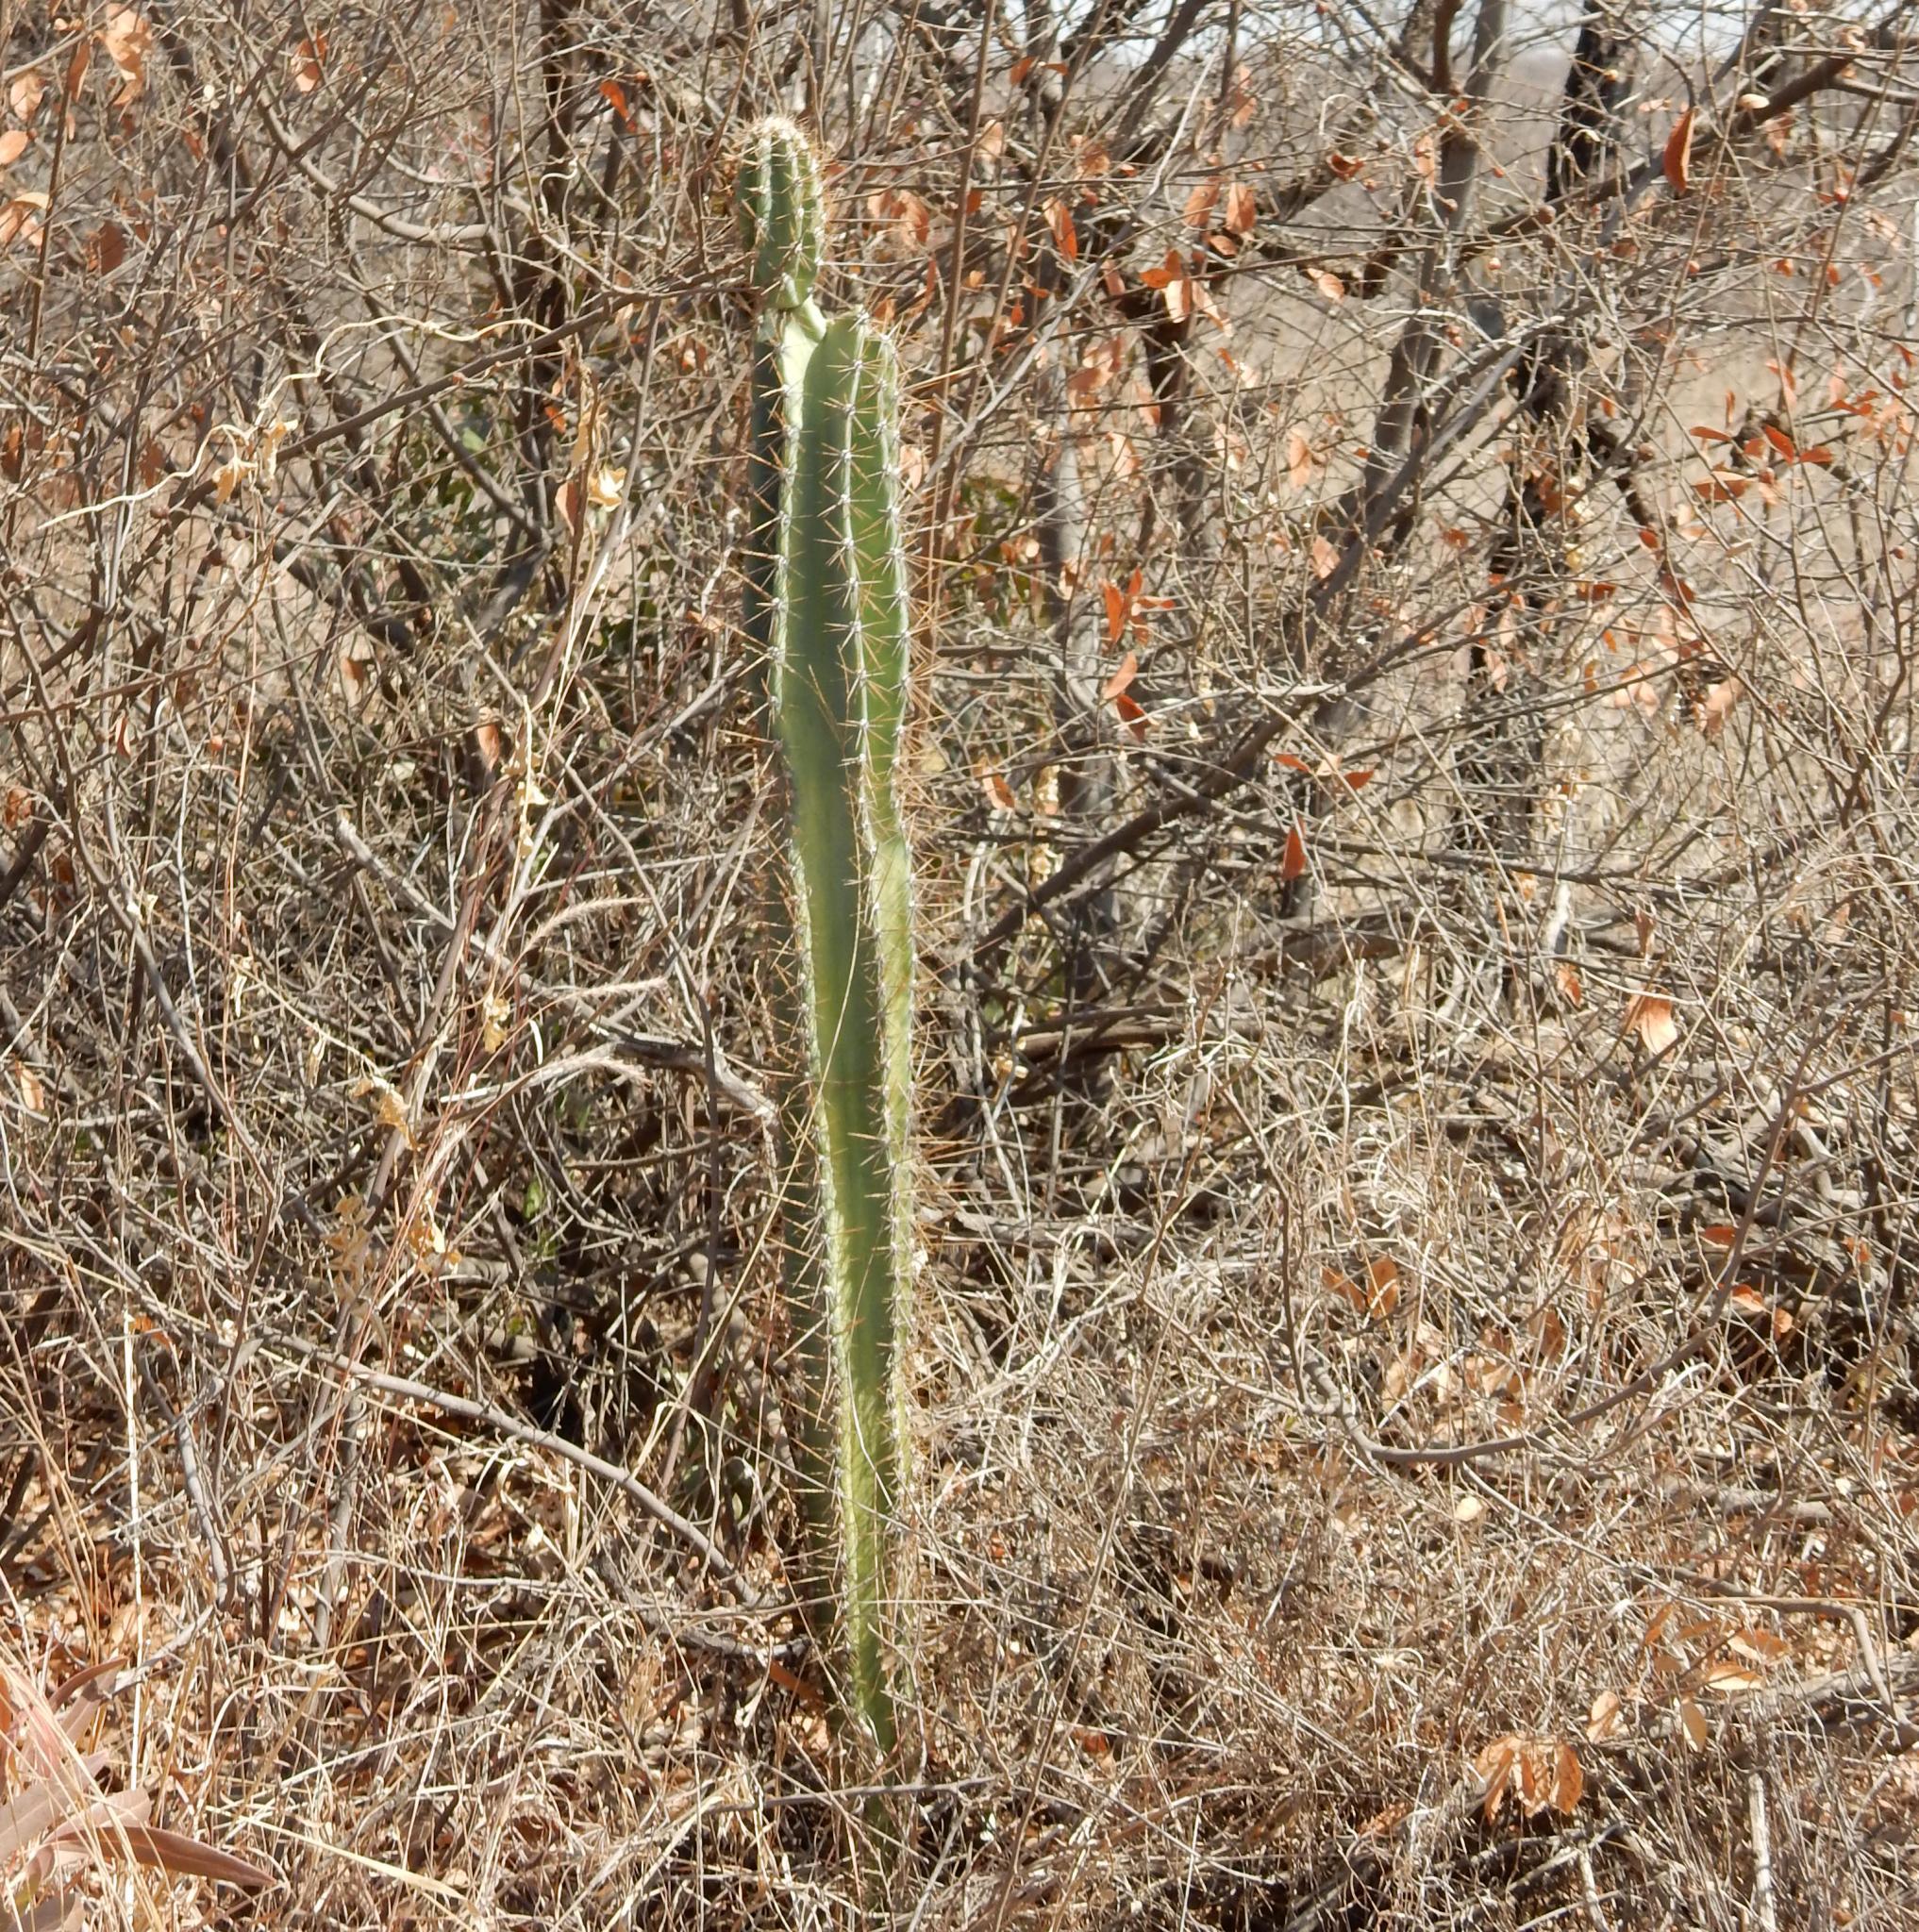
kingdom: Plantae
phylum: Tracheophyta
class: Magnoliopsida
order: Caryophyllales
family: Cactaceae
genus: Cereus
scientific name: Cereus jamacaru
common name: Queen-of-the-night
